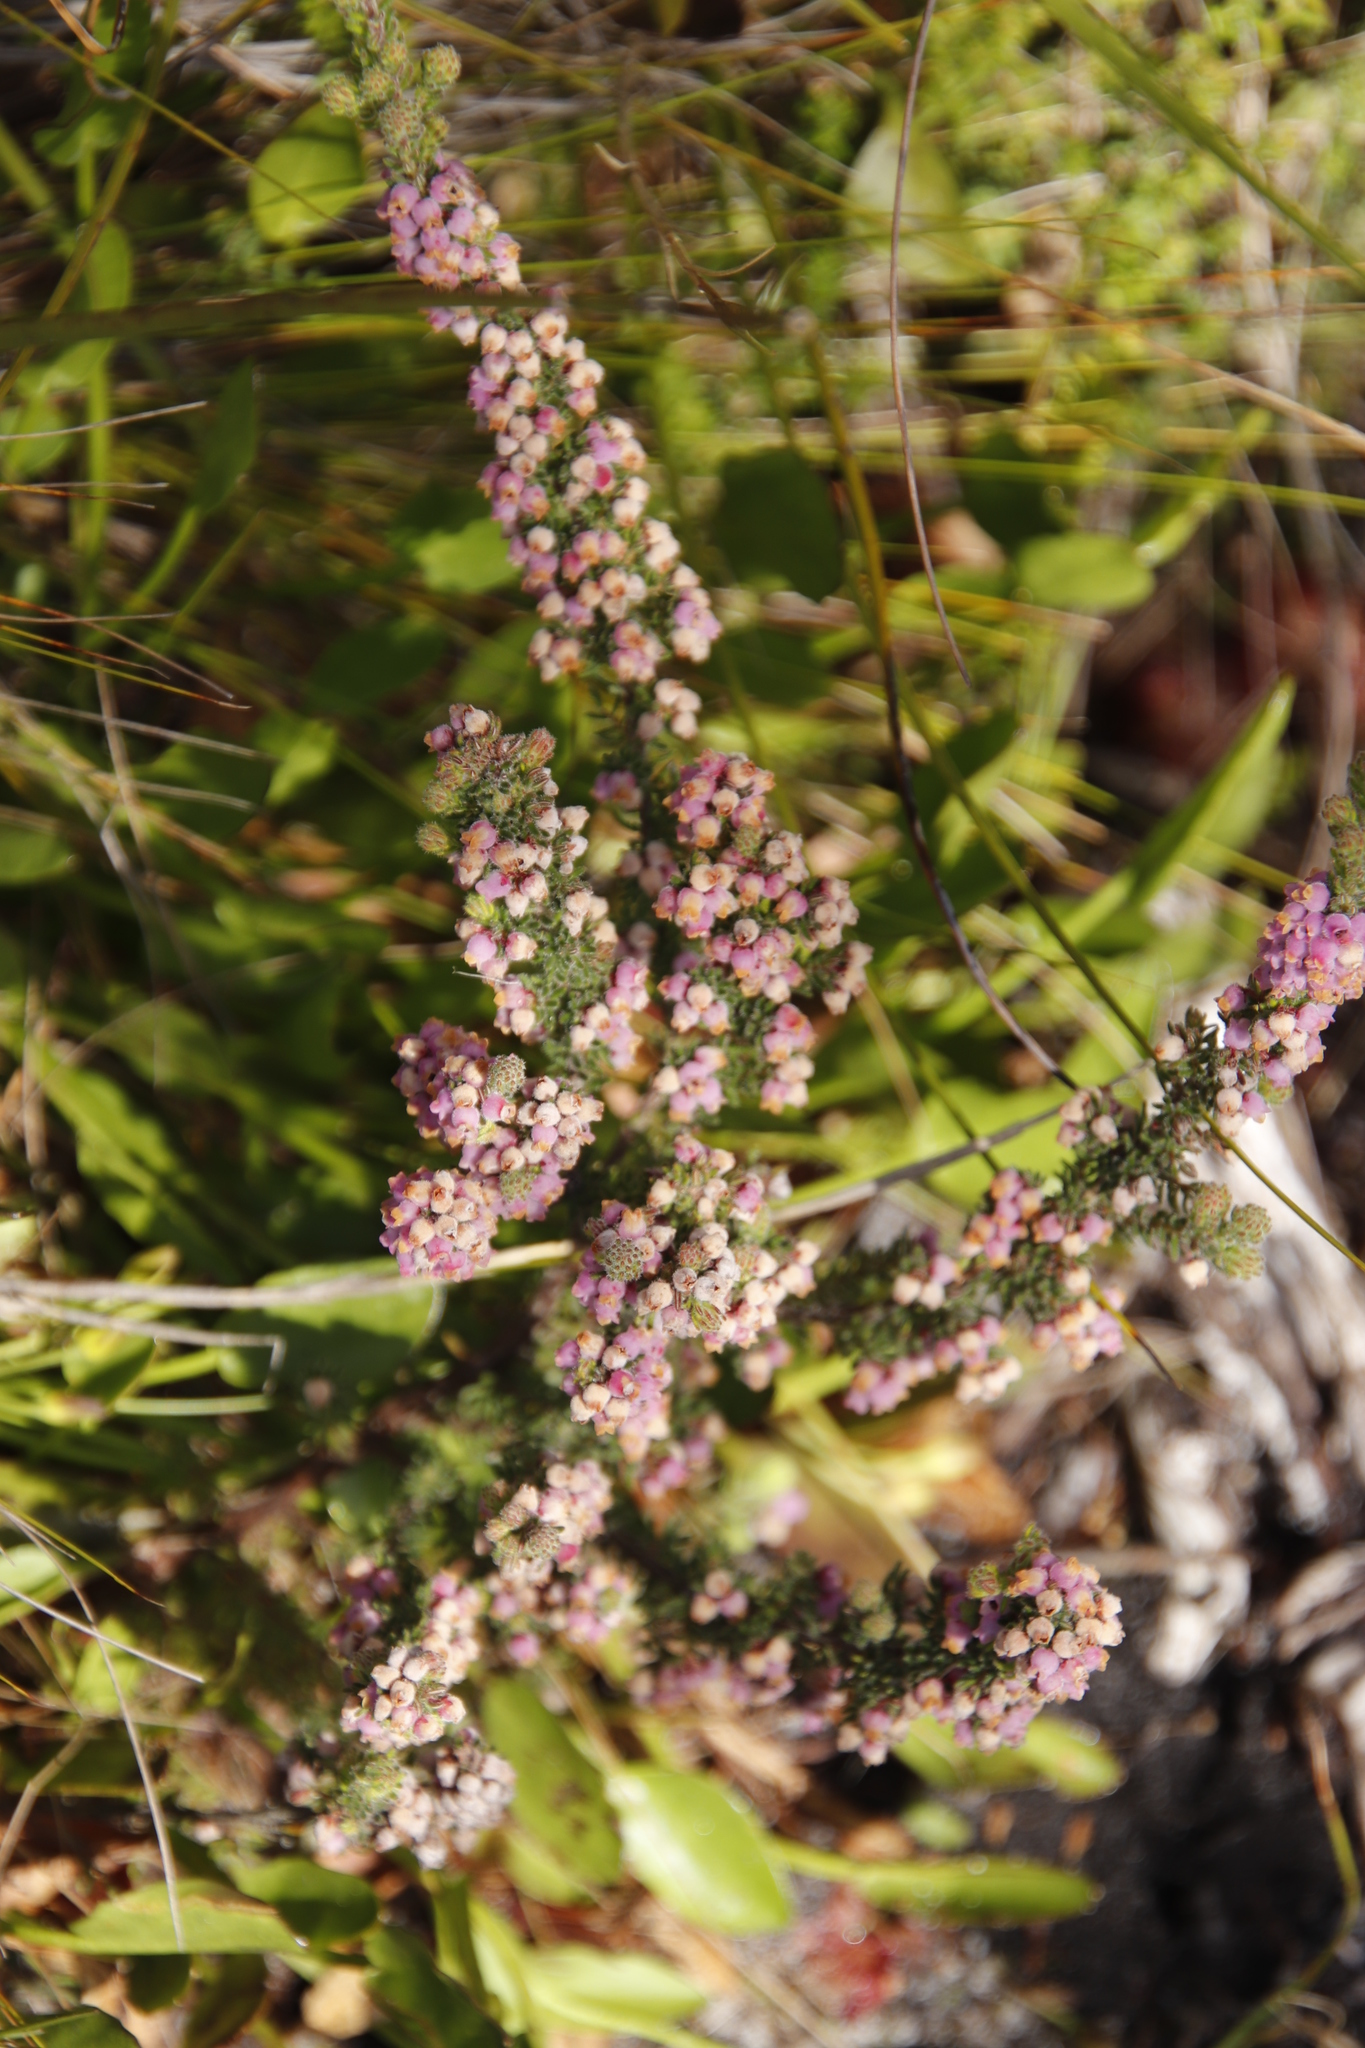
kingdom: Plantae
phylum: Tracheophyta
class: Magnoliopsida
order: Ericales
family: Ericaceae
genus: Erica
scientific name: Erica mollis
